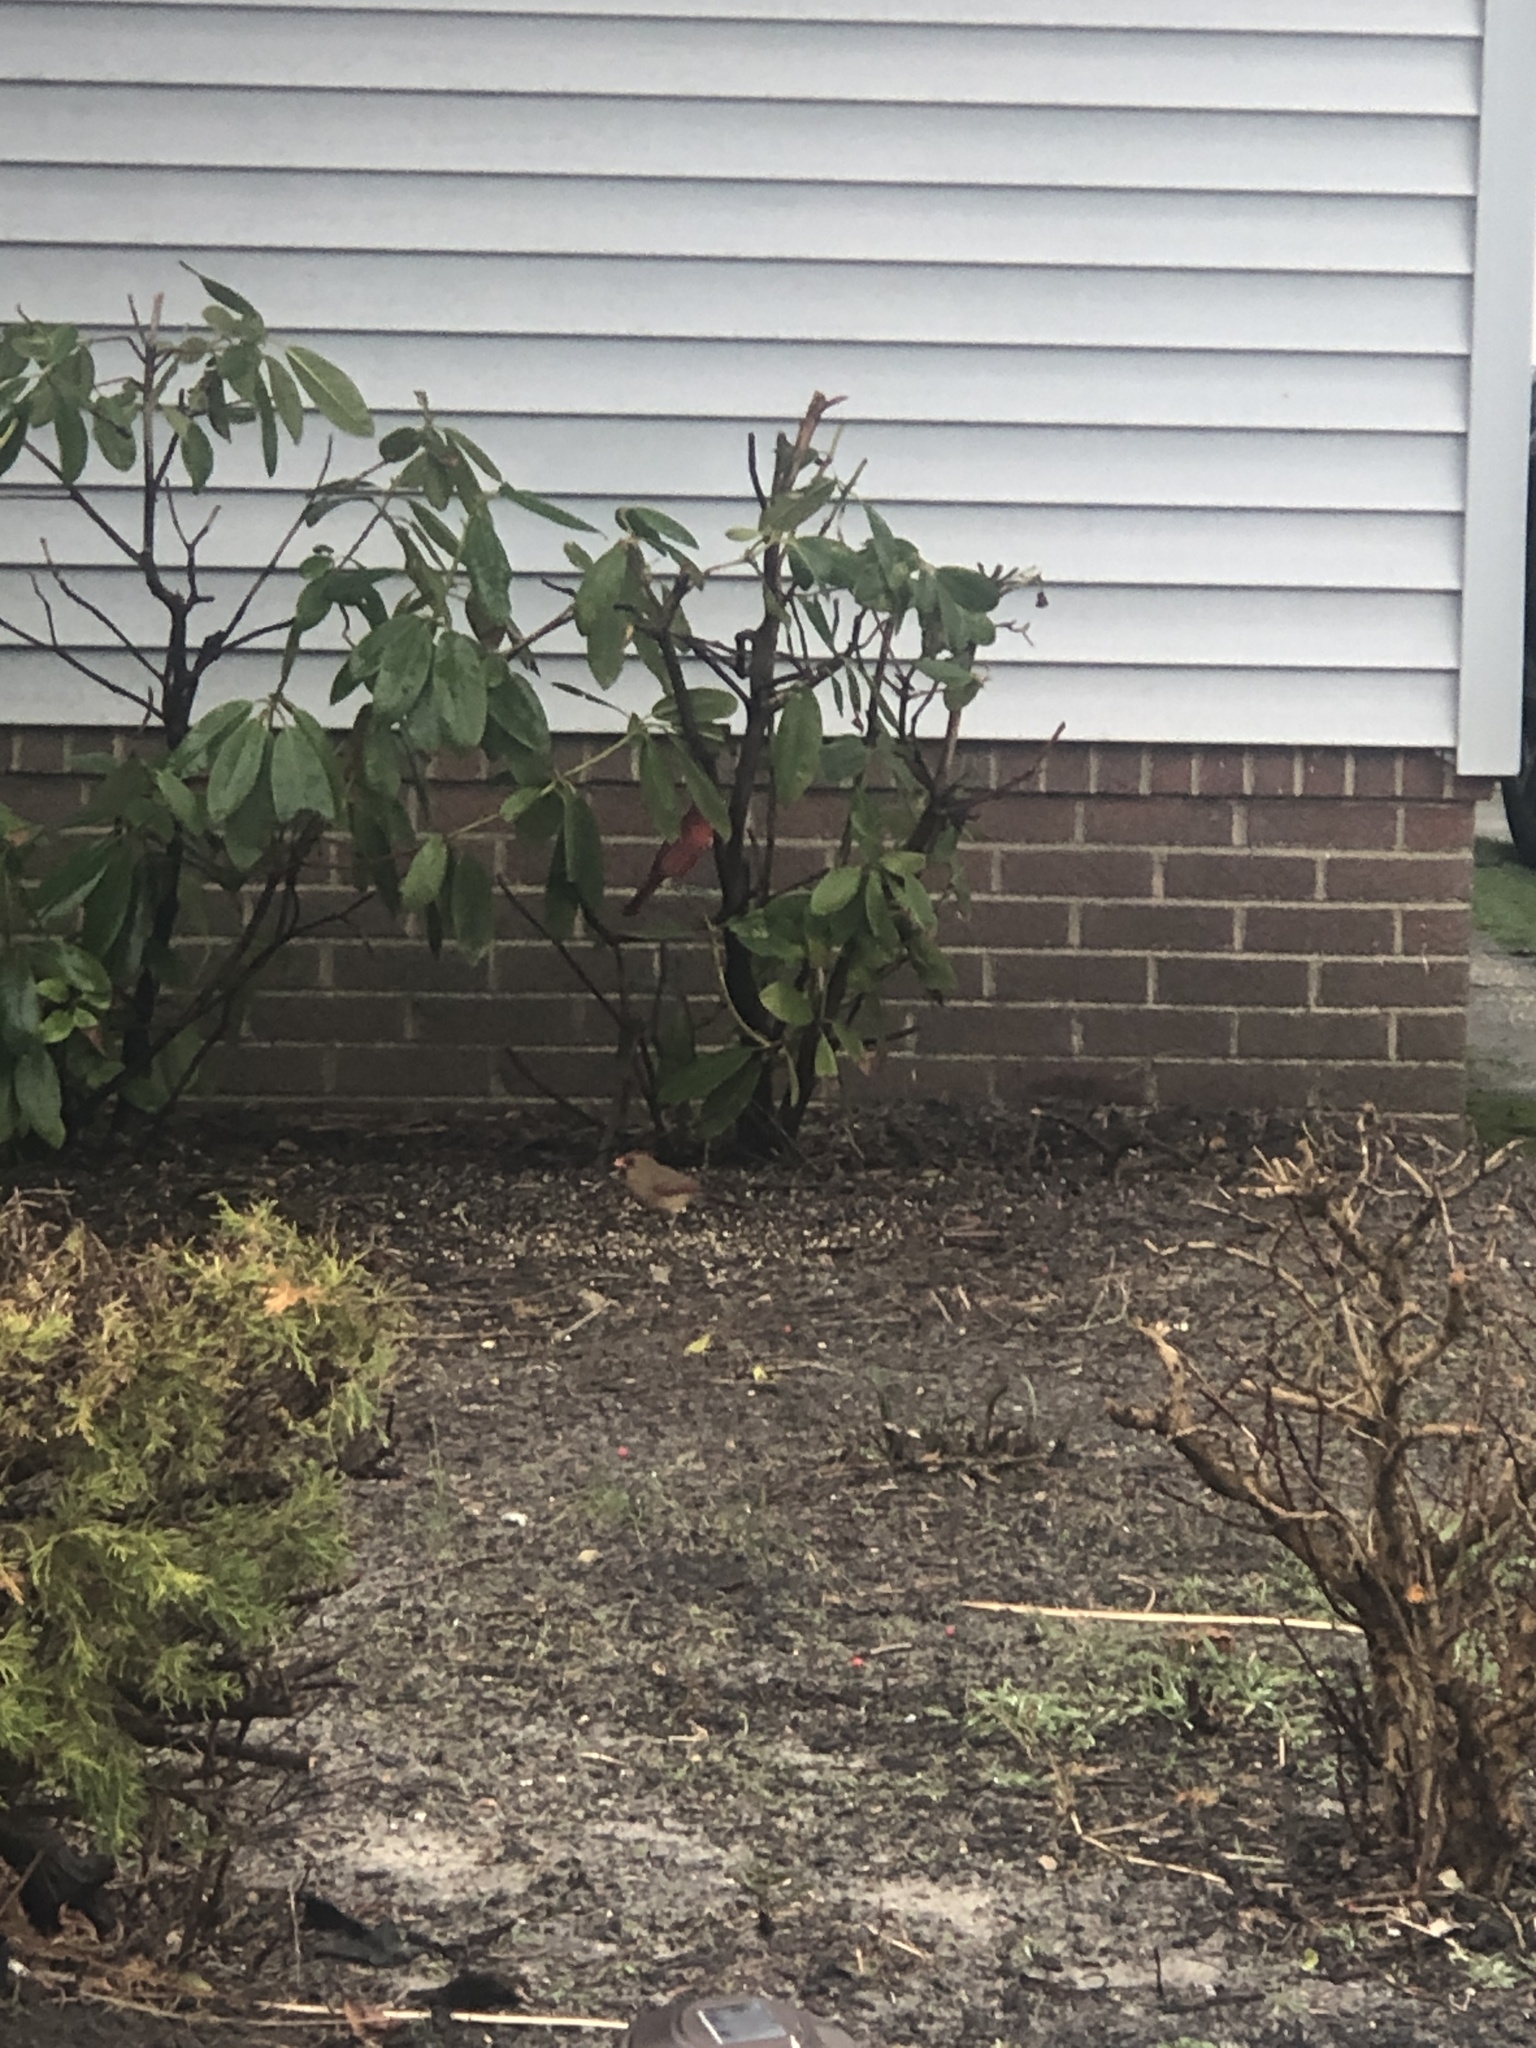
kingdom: Animalia
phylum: Chordata
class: Aves
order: Passeriformes
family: Cardinalidae
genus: Cardinalis
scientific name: Cardinalis cardinalis
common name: Northern cardinal
